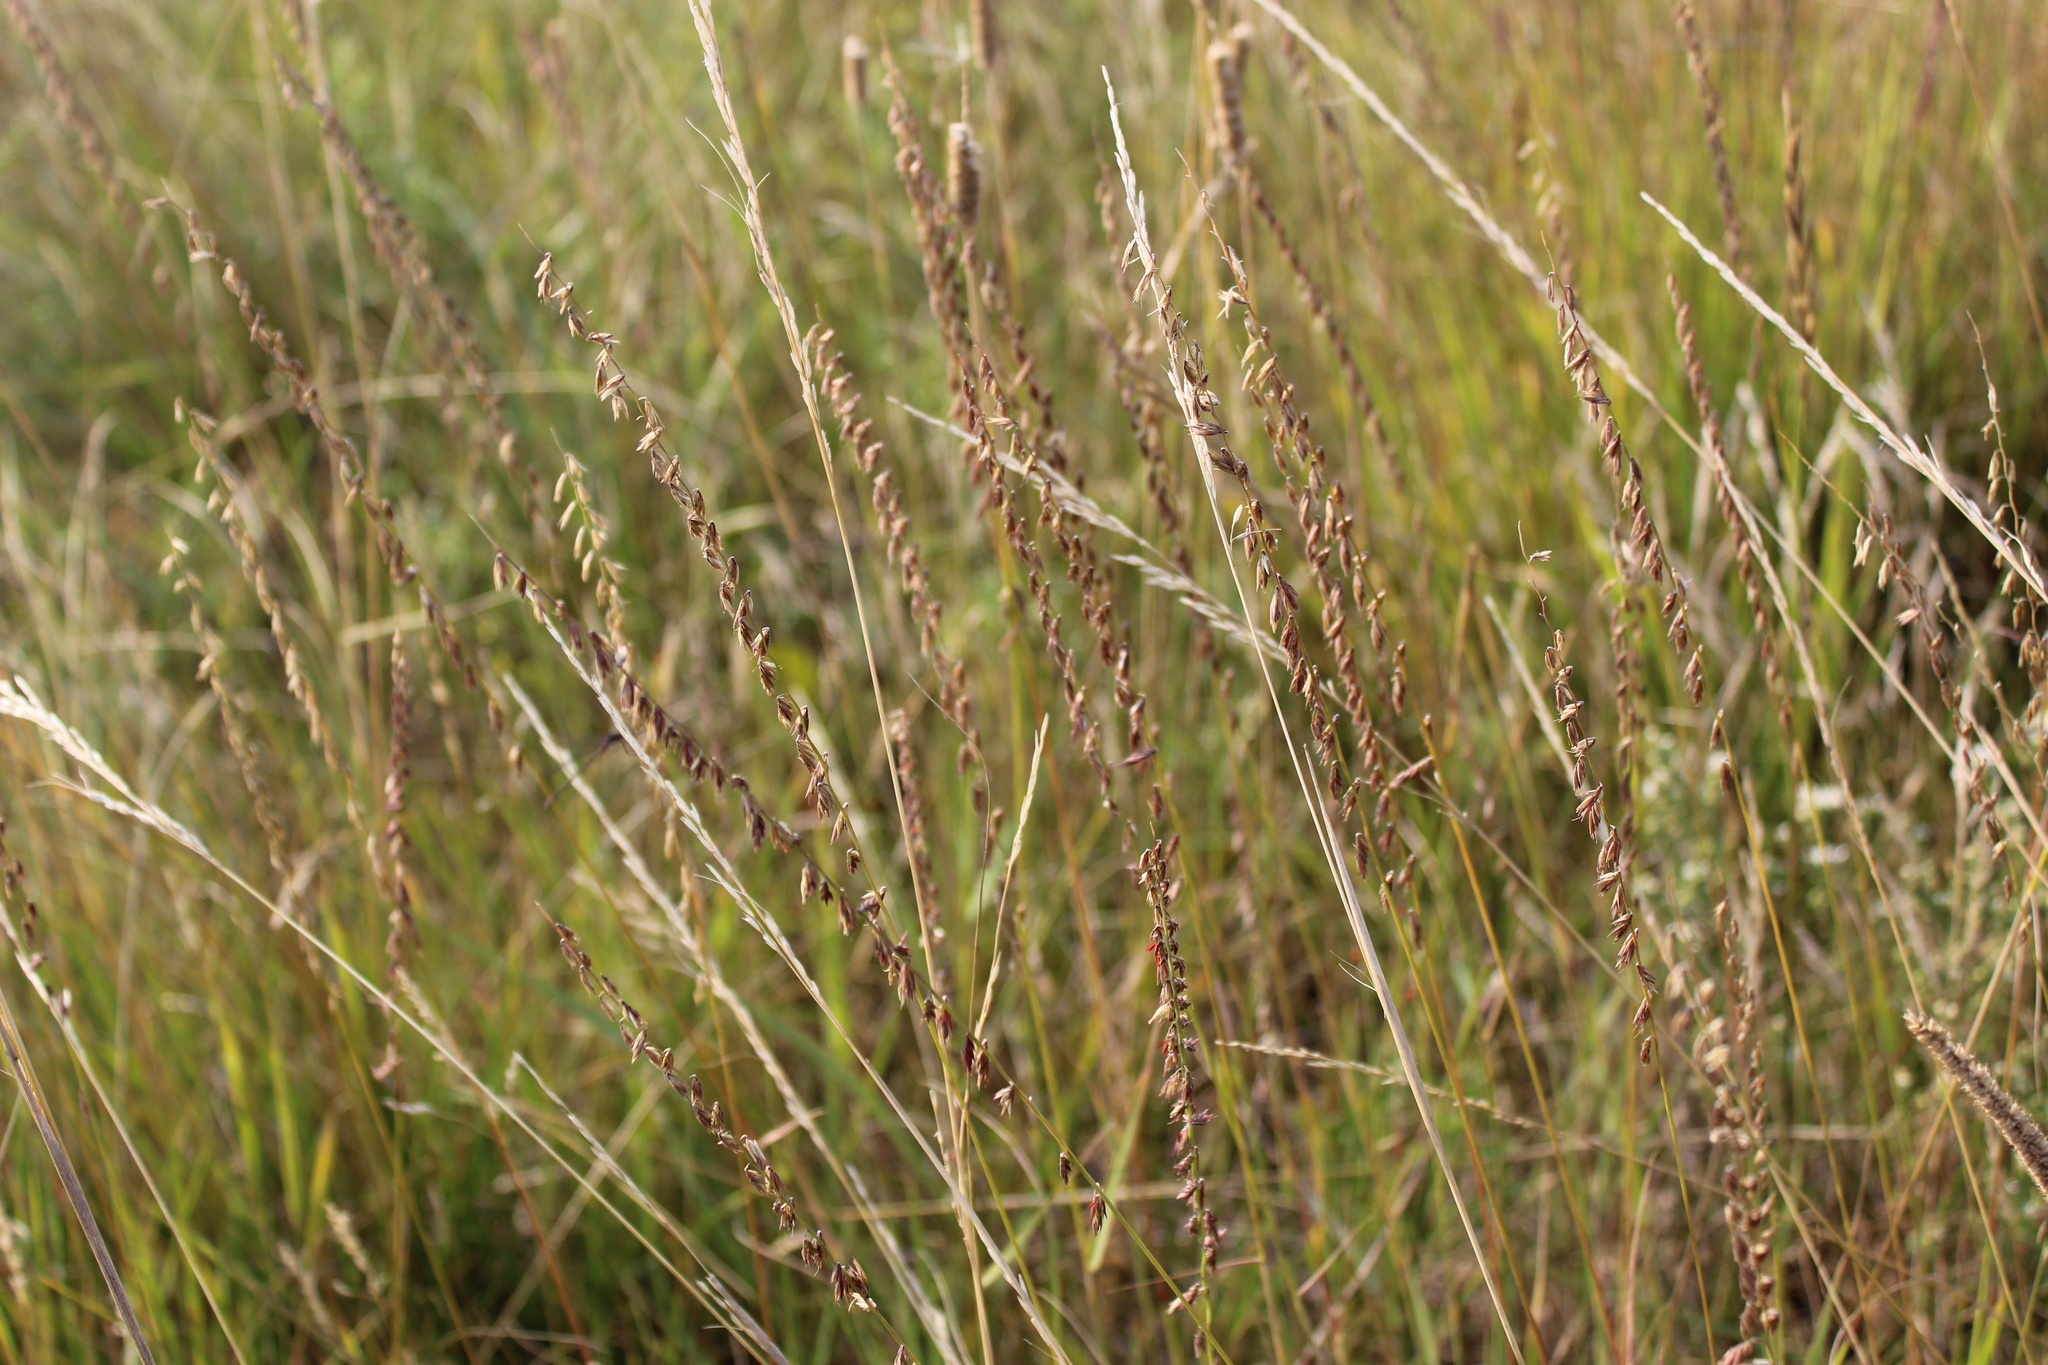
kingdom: Plantae
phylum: Tracheophyta
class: Liliopsida
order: Poales
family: Poaceae
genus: Bouteloua
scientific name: Bouteloua curtipendula
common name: Side-oats grama
